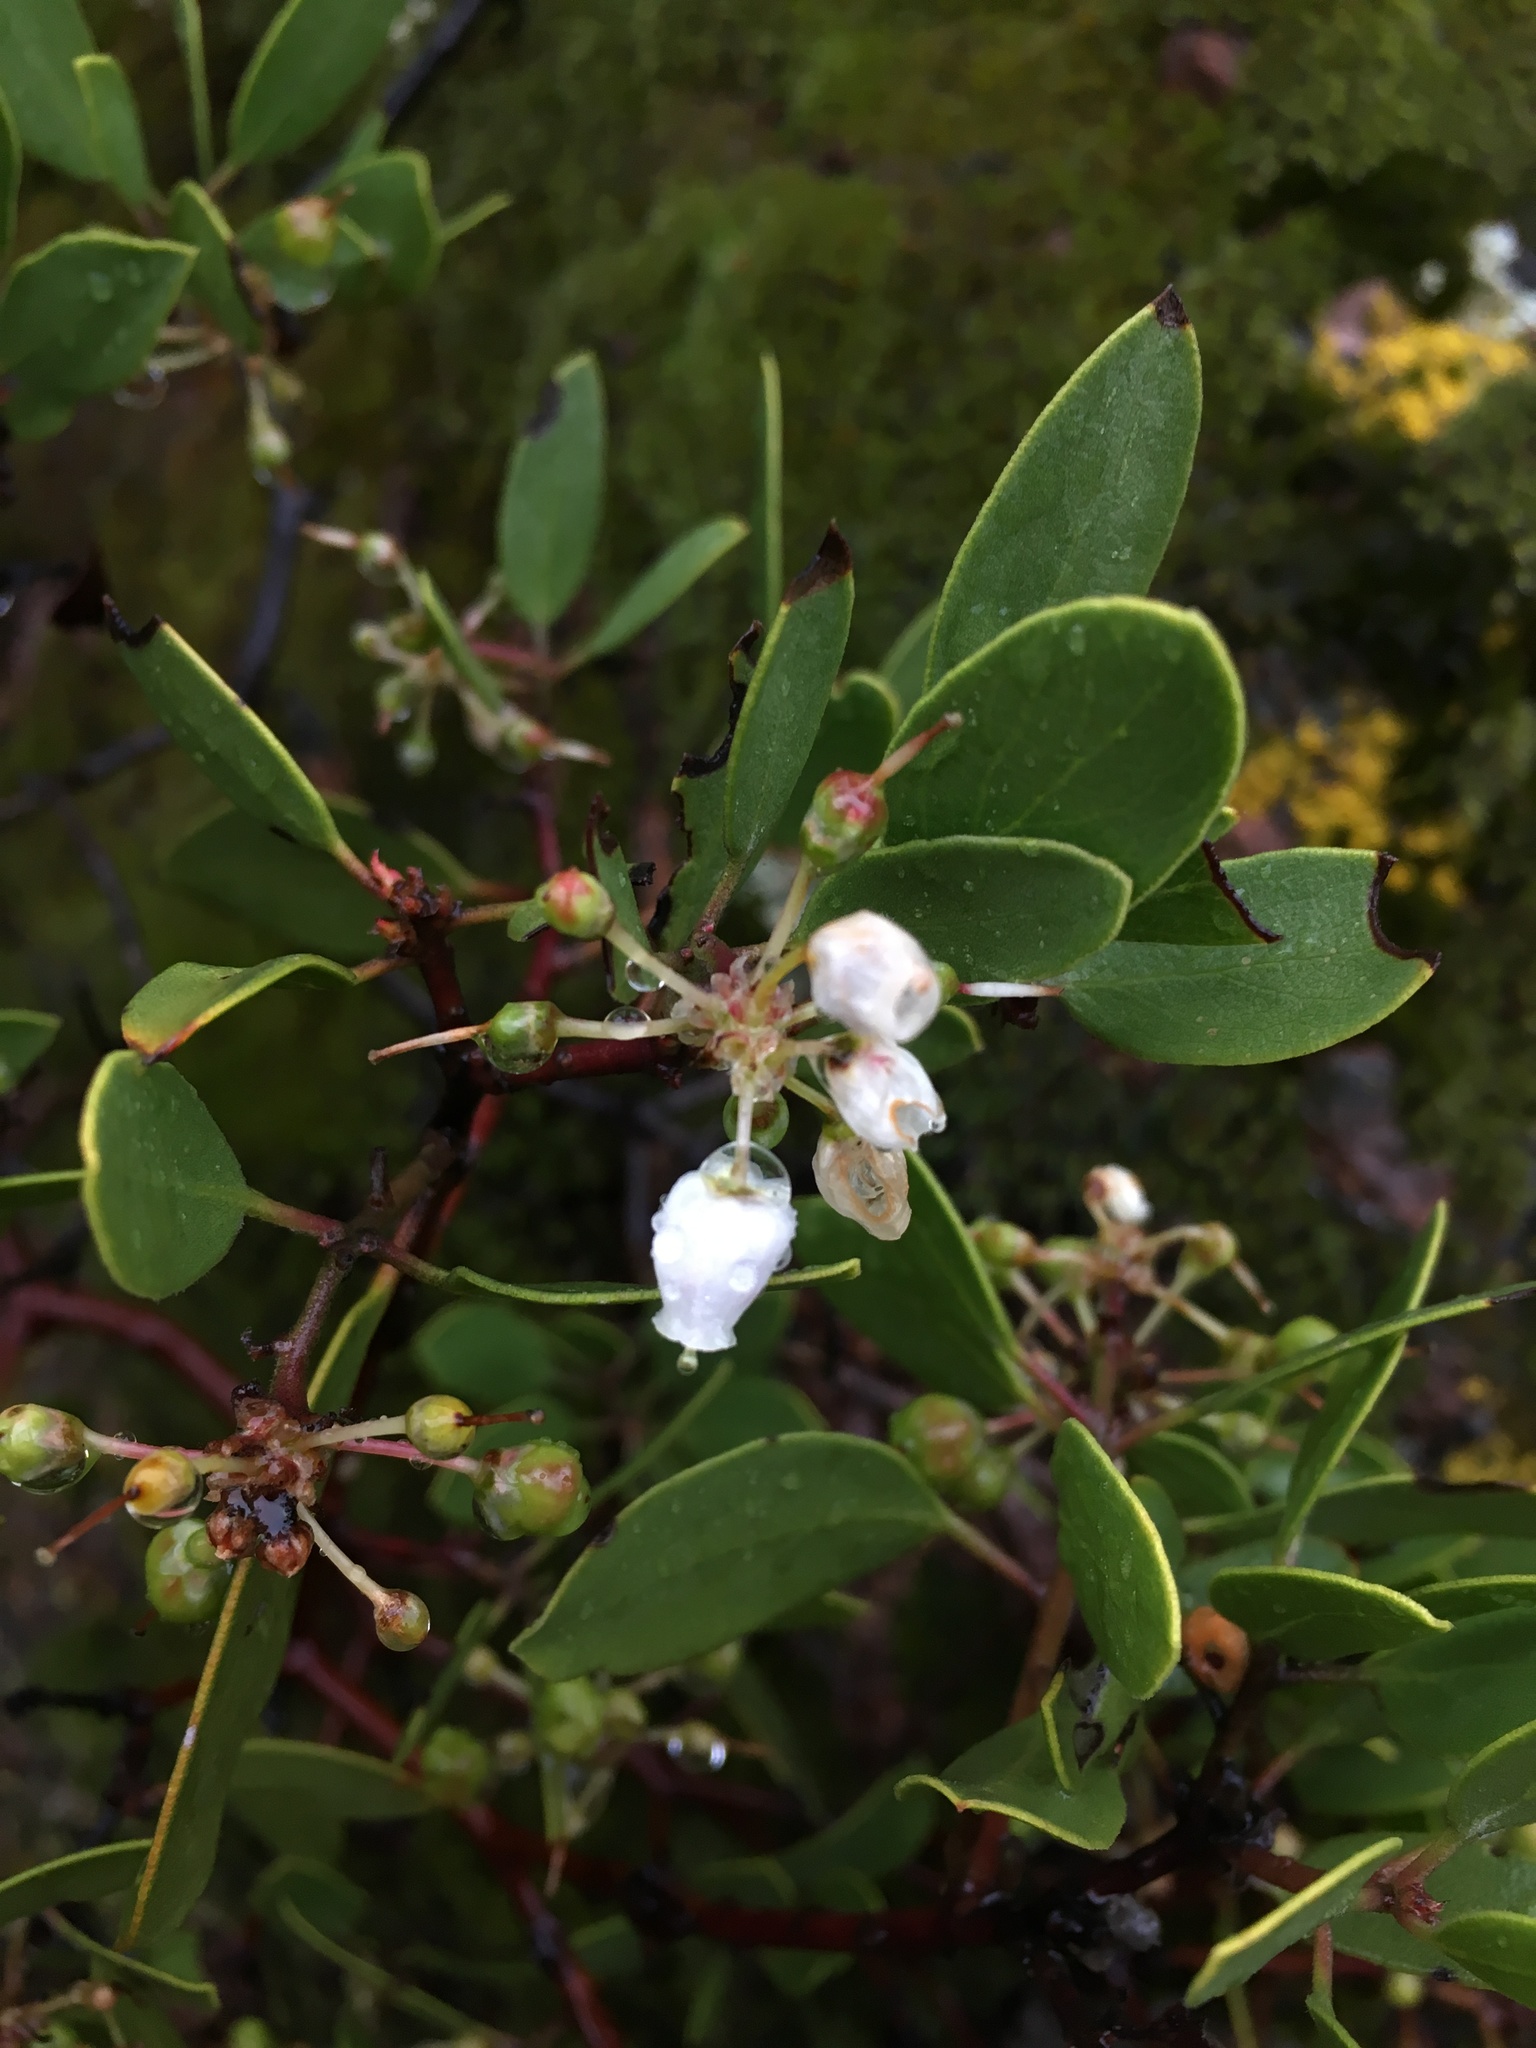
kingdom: Plantae
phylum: Tracheophyta
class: Magnoliopsida
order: Ericales
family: Ericaceae
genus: Arctostaphylos
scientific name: Arctostaphylos pungens
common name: Mexican manzanita
